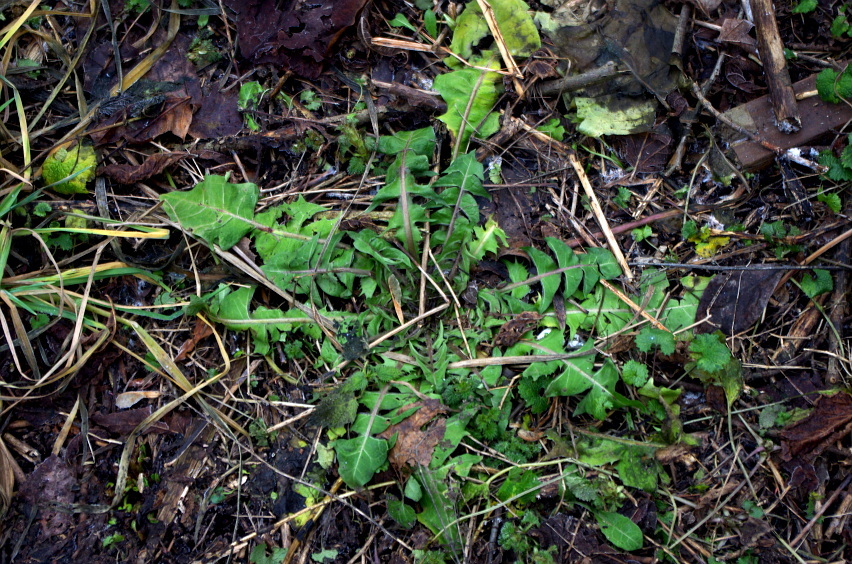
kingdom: Plantae
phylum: Tracheophyta
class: Magnoliopsida
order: Asterales
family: Asteraceae
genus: Taraxacum
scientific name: Taraxacum officinale
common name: Common dandelion
